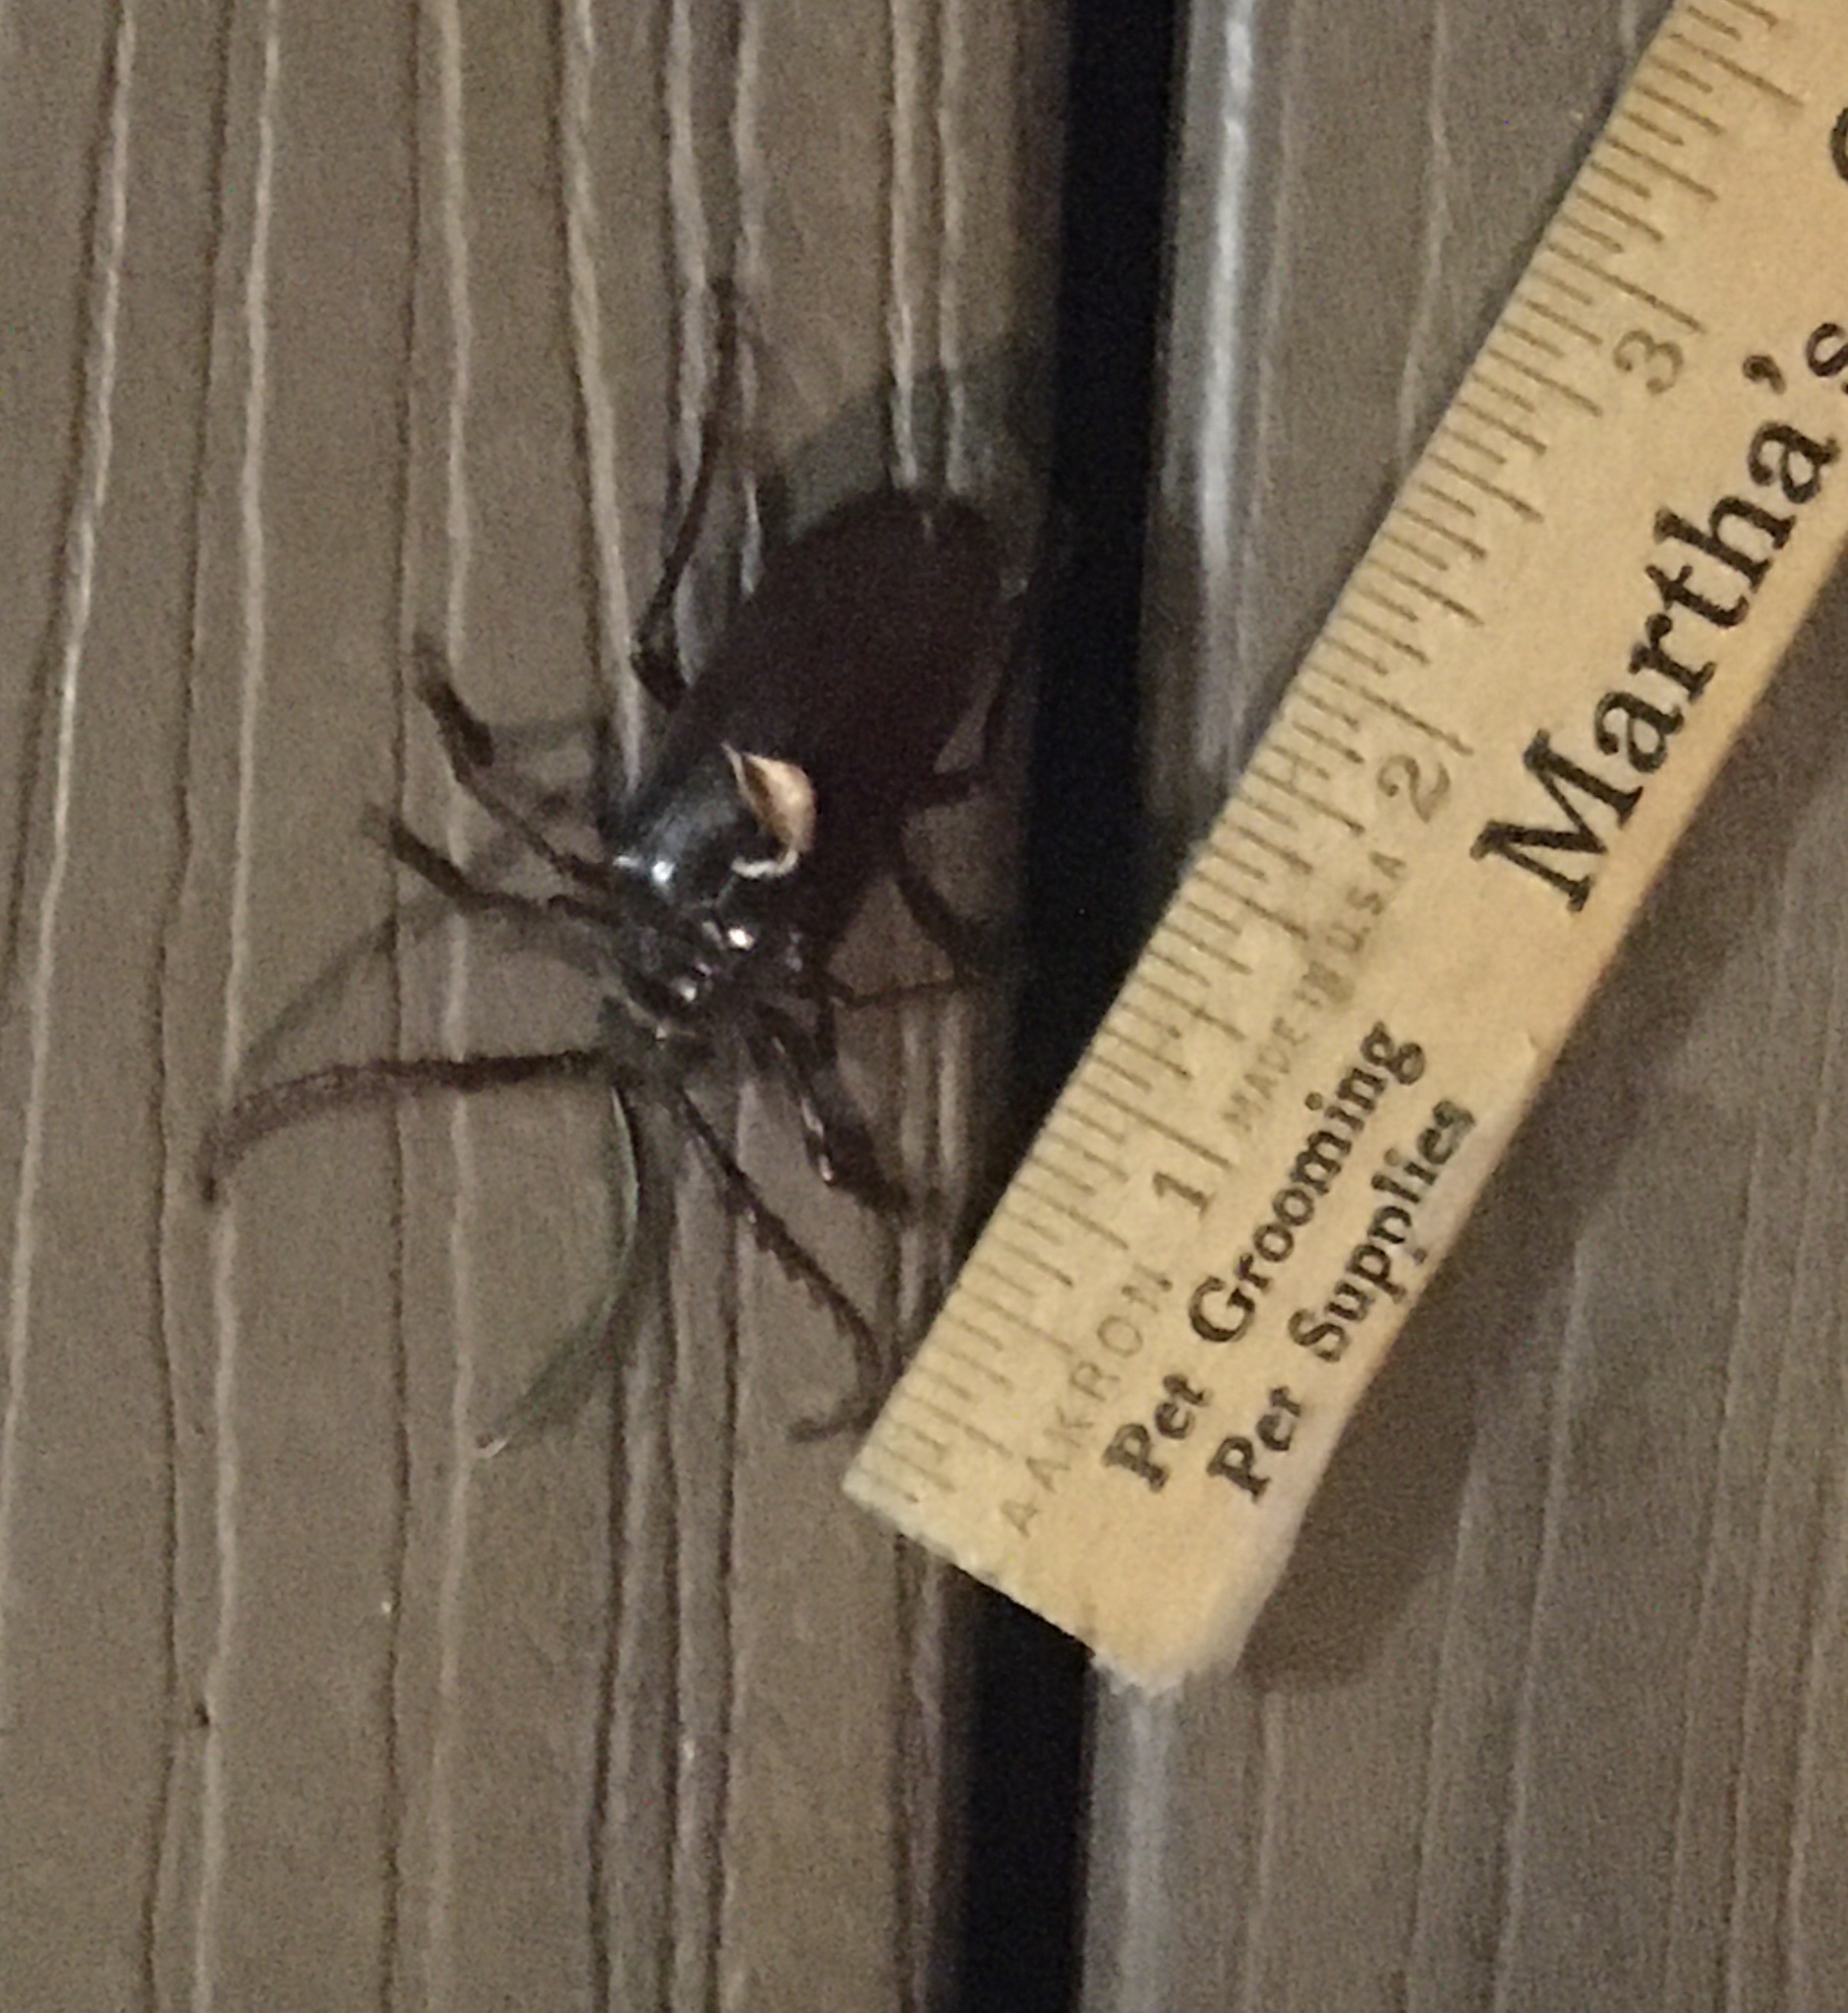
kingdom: Animalia
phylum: Arthropoda
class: Insecta
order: Coleoptera
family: Cerambycidae
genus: Prionus
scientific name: Prionus californicus
